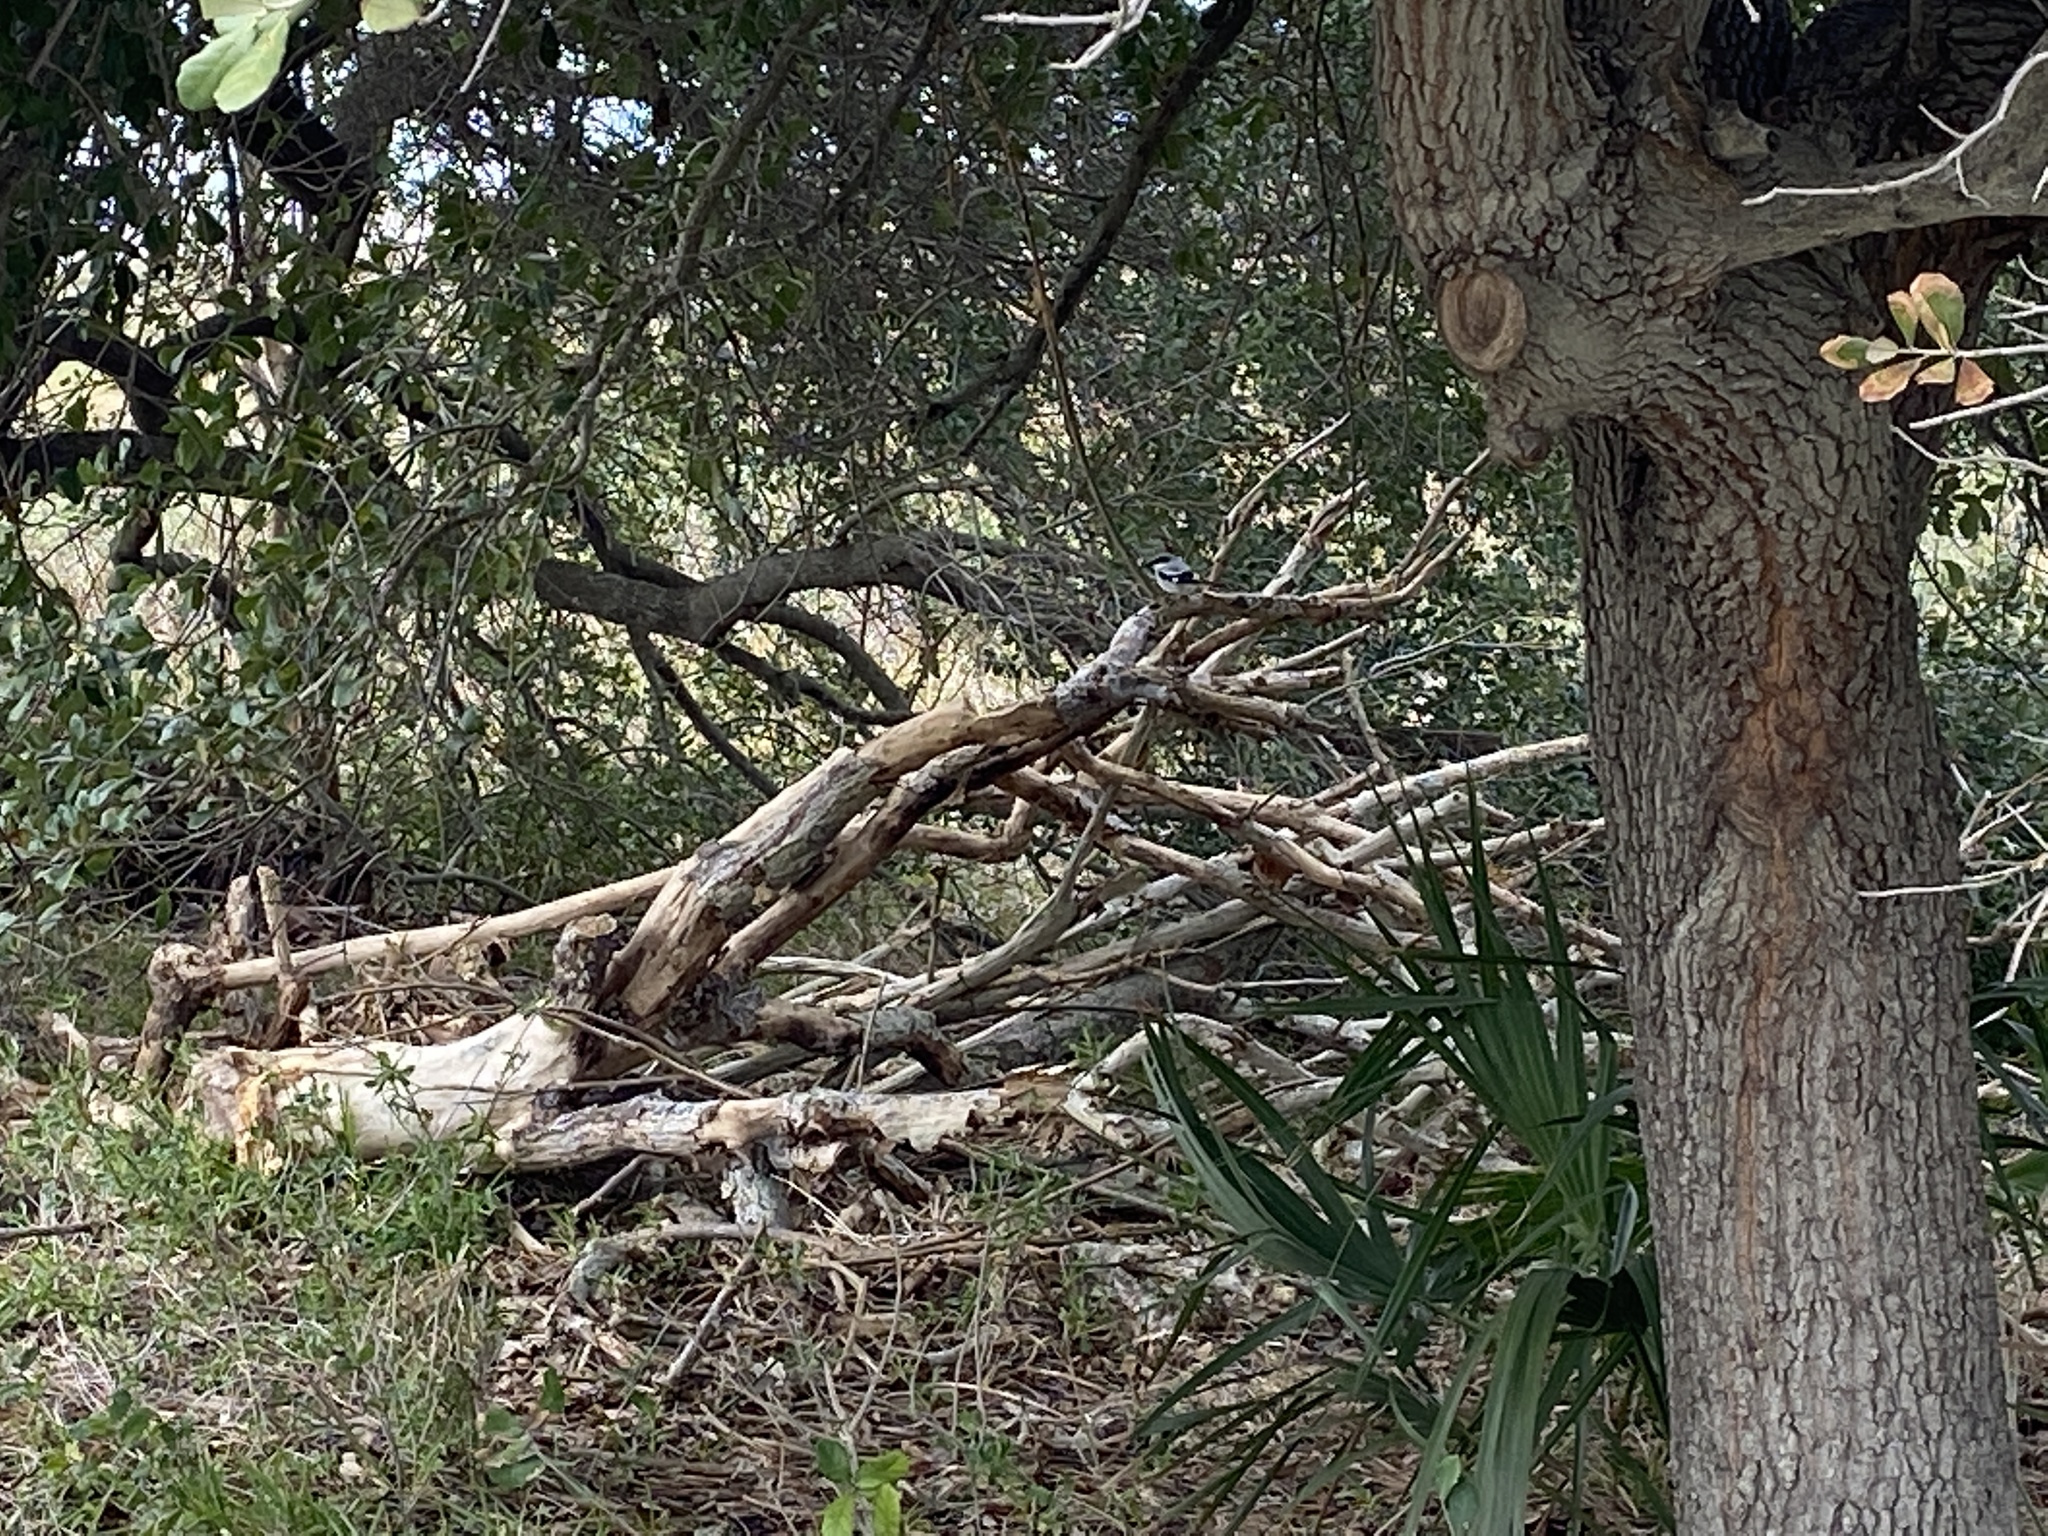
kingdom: Animalia
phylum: Chordata
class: Aves
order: Passeriformes
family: Laniidae
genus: Lanius
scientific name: Lanius ludovicianus
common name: Loggerhead shrike
